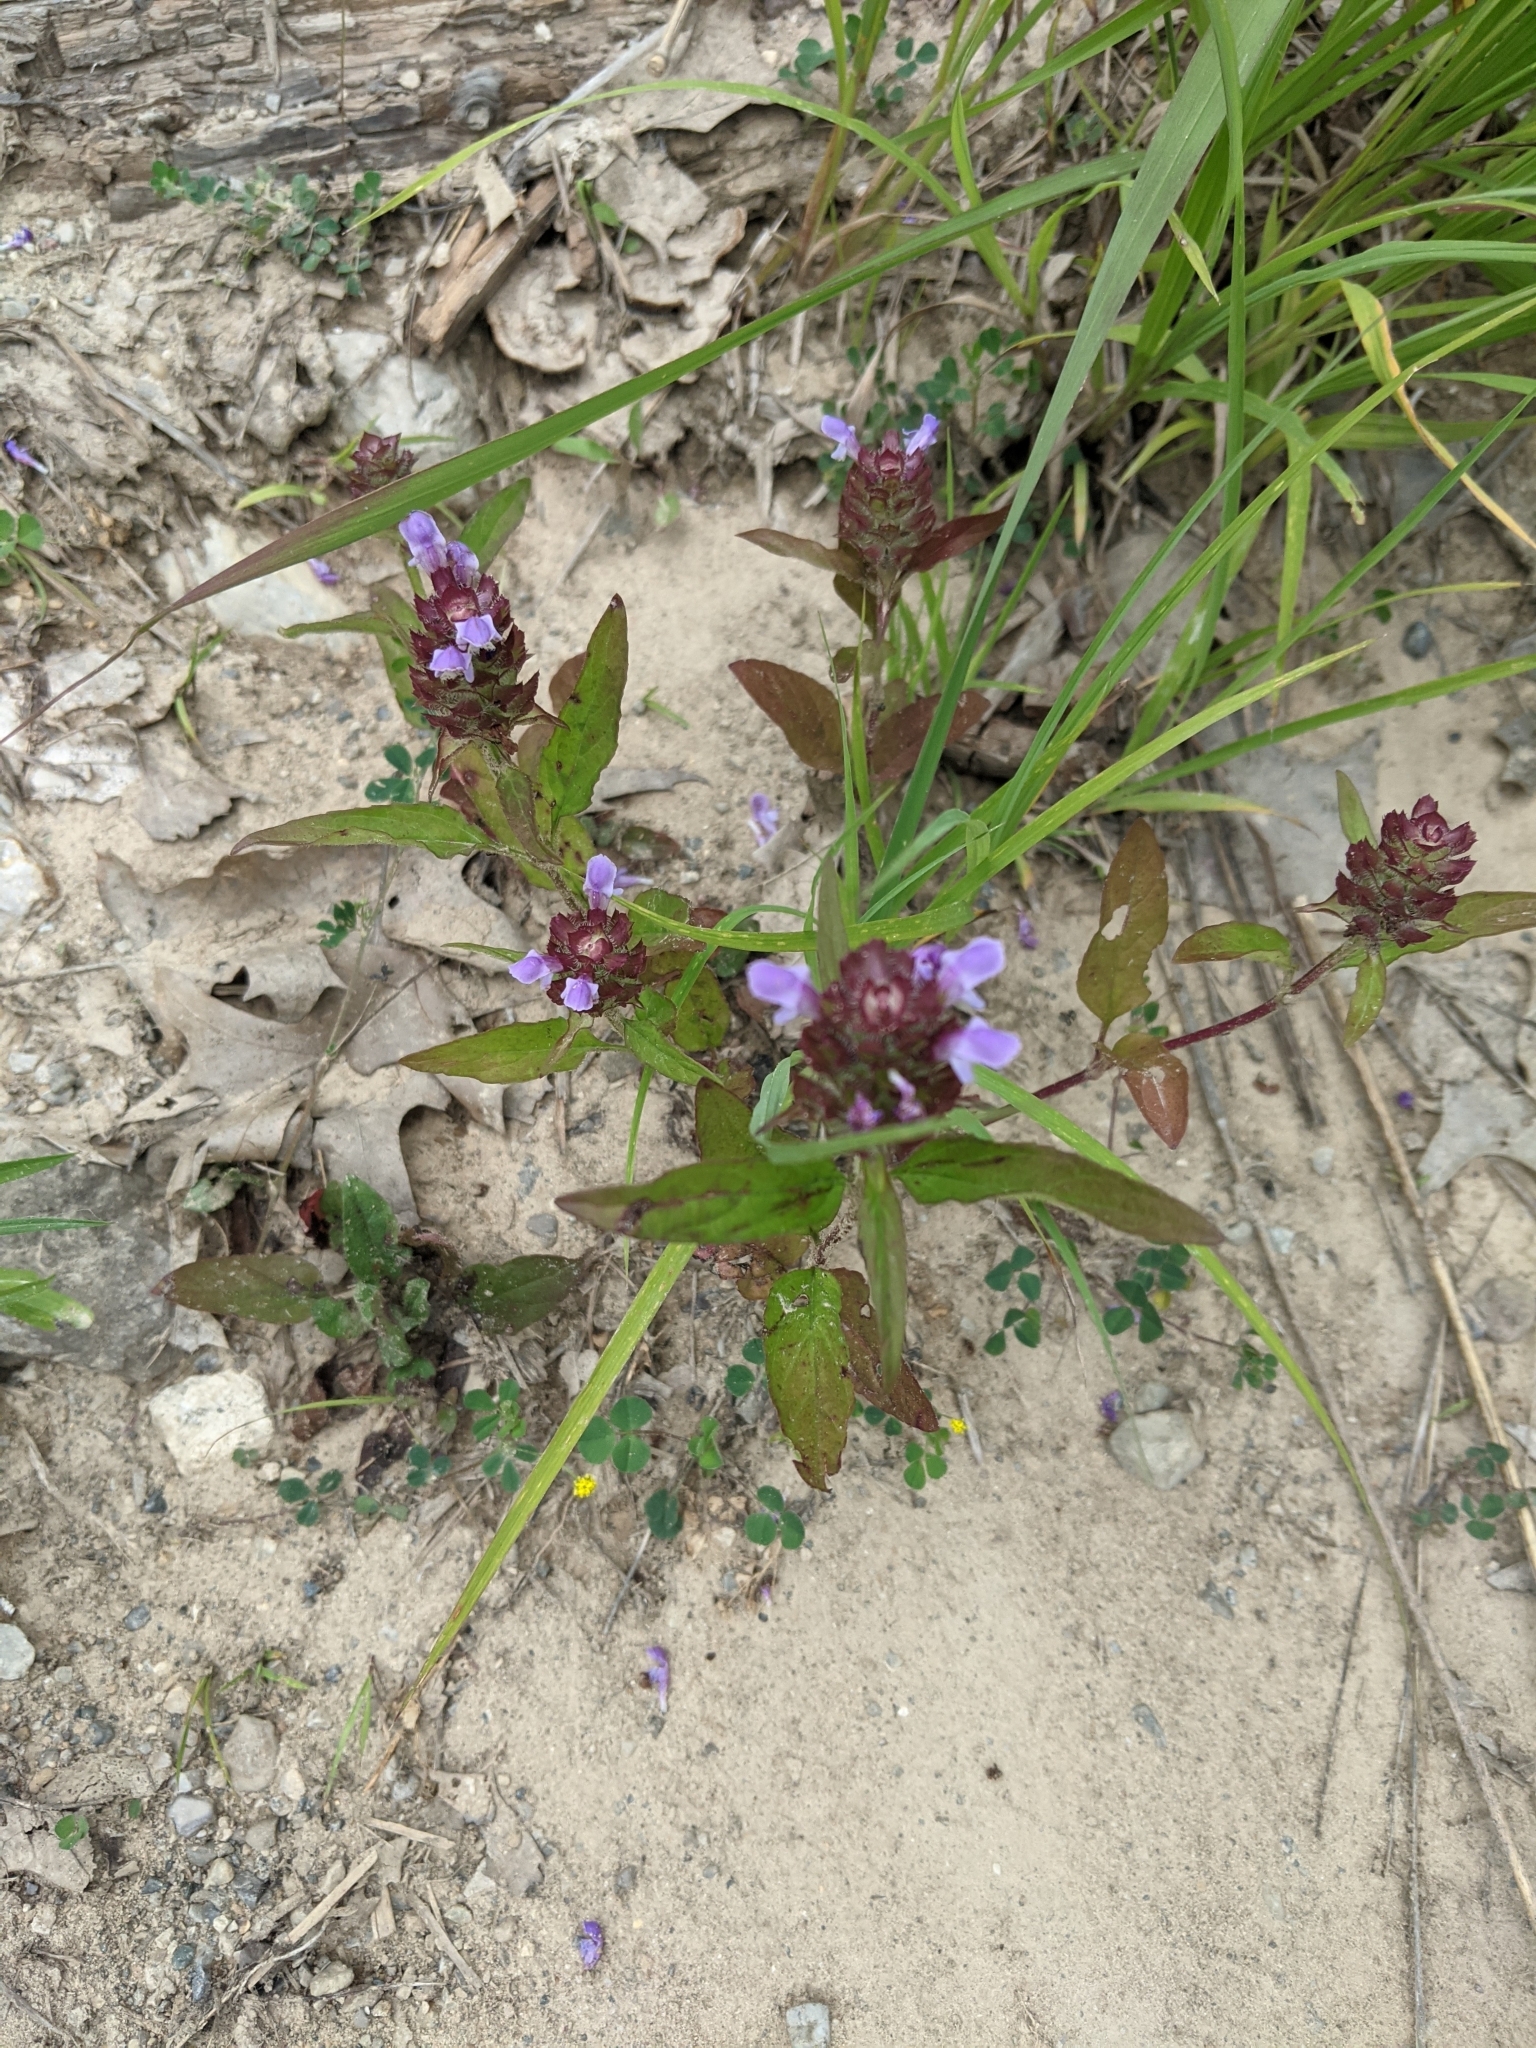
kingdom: Plantae
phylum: Tracheophyta
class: Magnoliopsida
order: Lamiales
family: Lamiaceae
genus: Prunella
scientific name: Prunella vulgaris
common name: Heal-all
